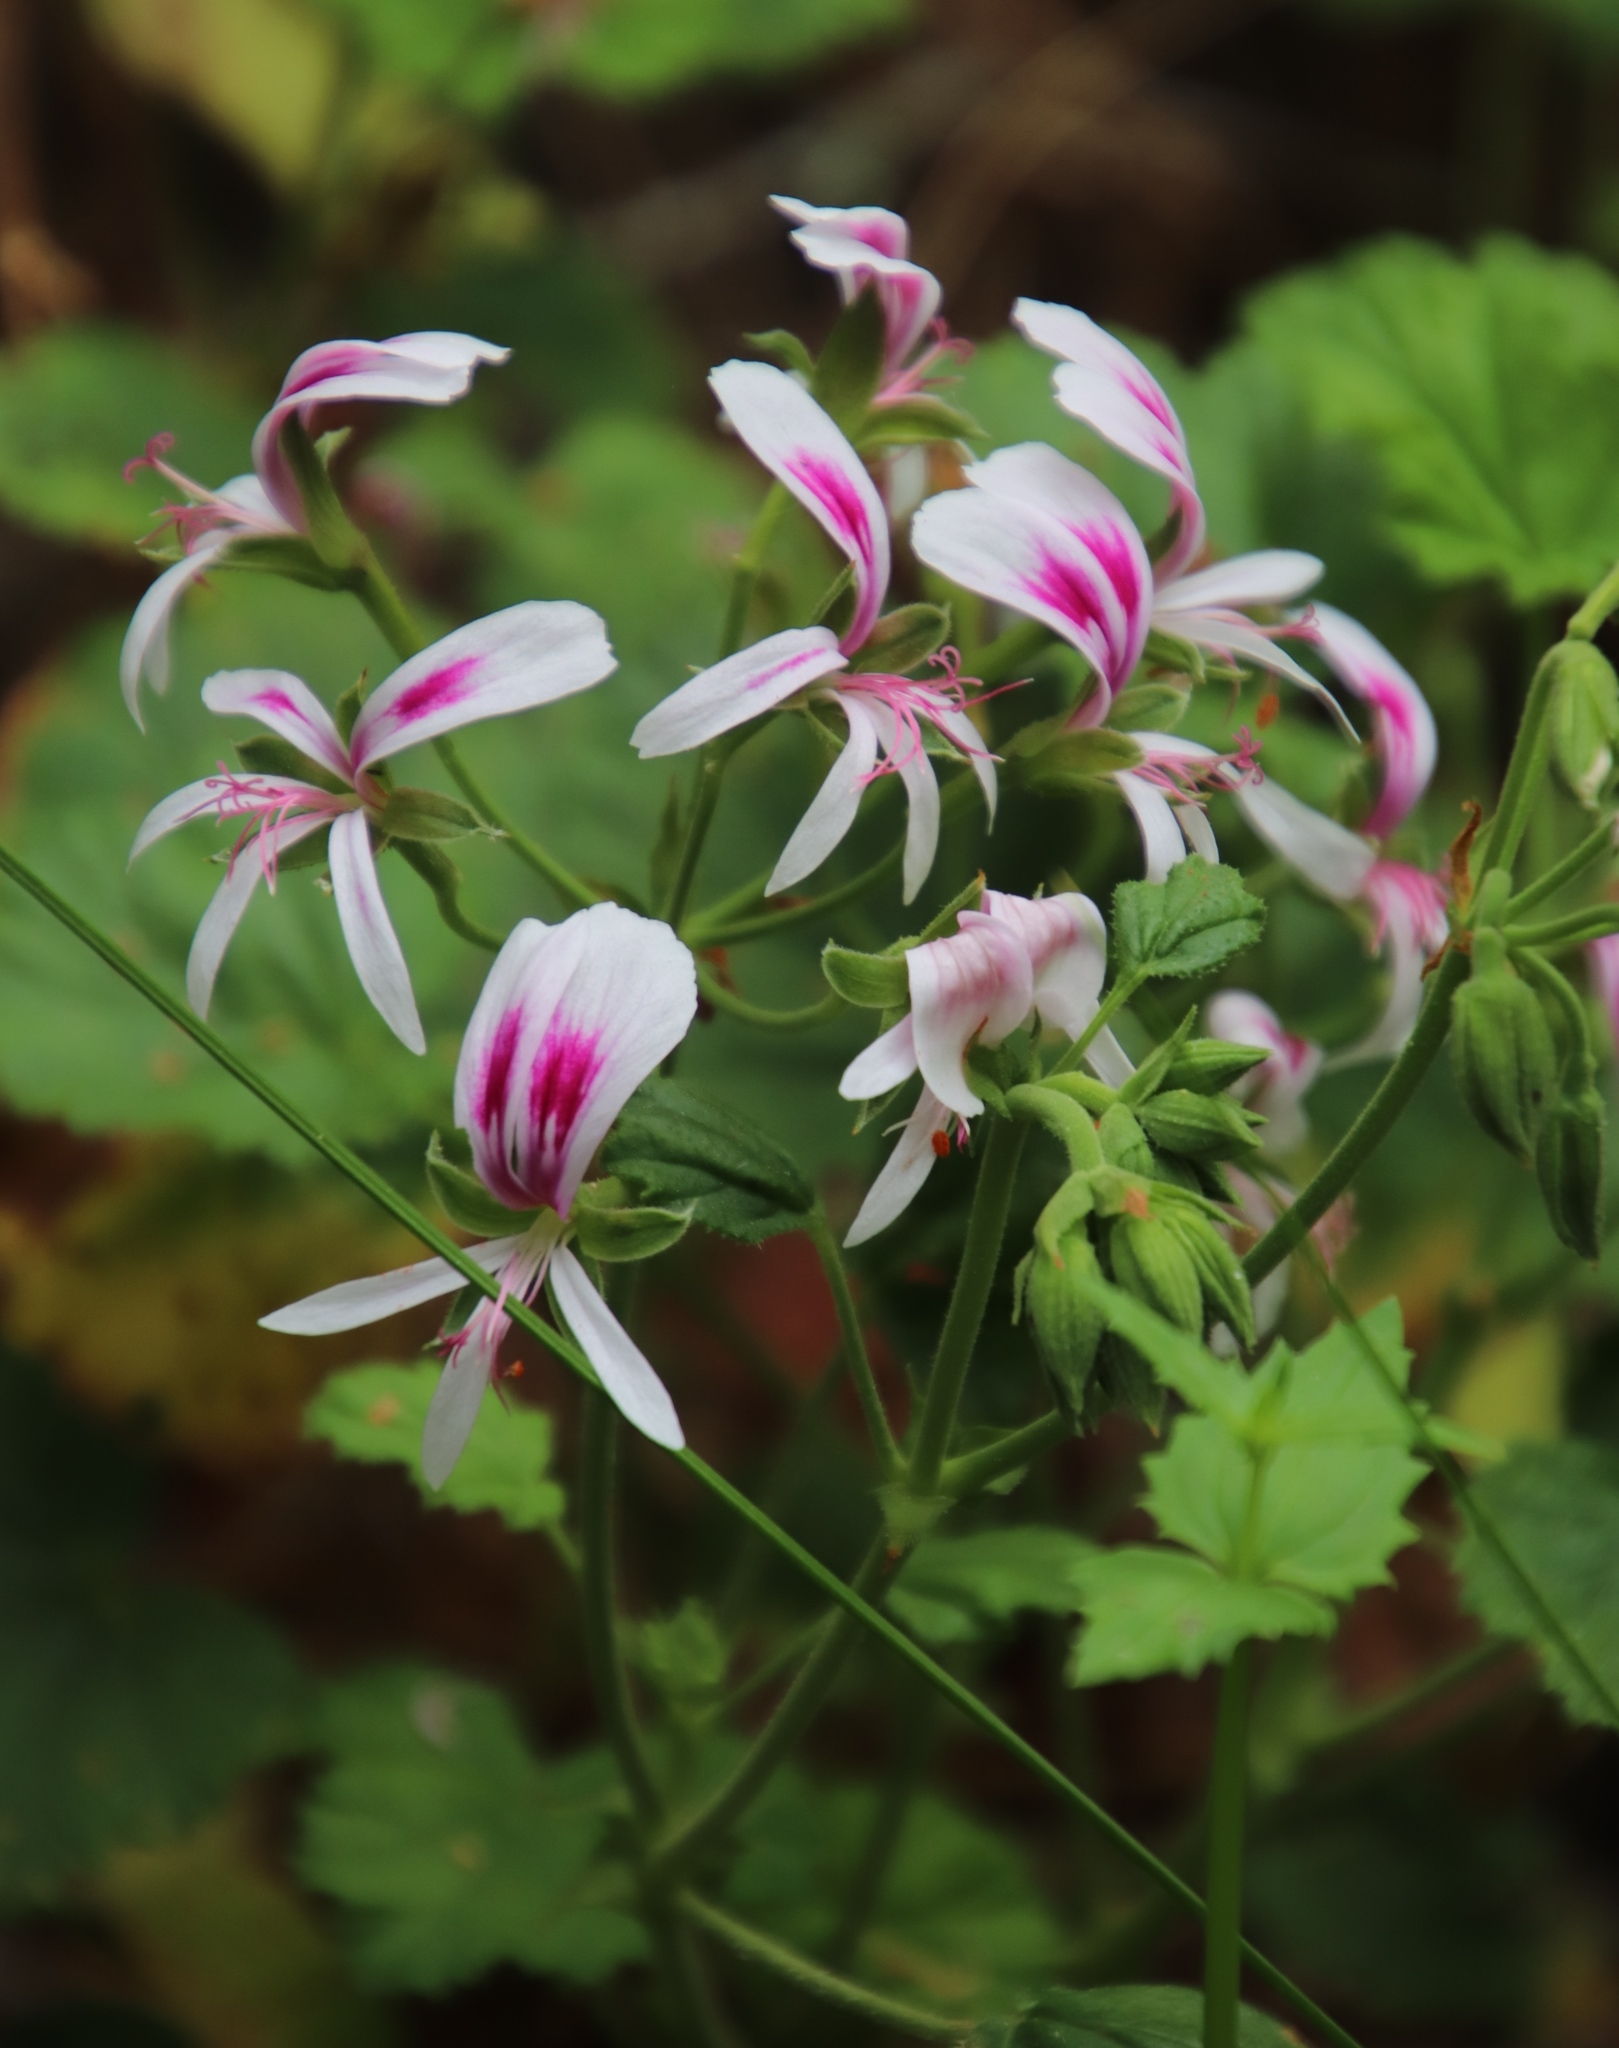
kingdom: Plantae
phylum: Tracheophyta
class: Magnoliopsida
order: Geraniales
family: Geraniaceae
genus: Pelargonium
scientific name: Pelargonium greytonense
